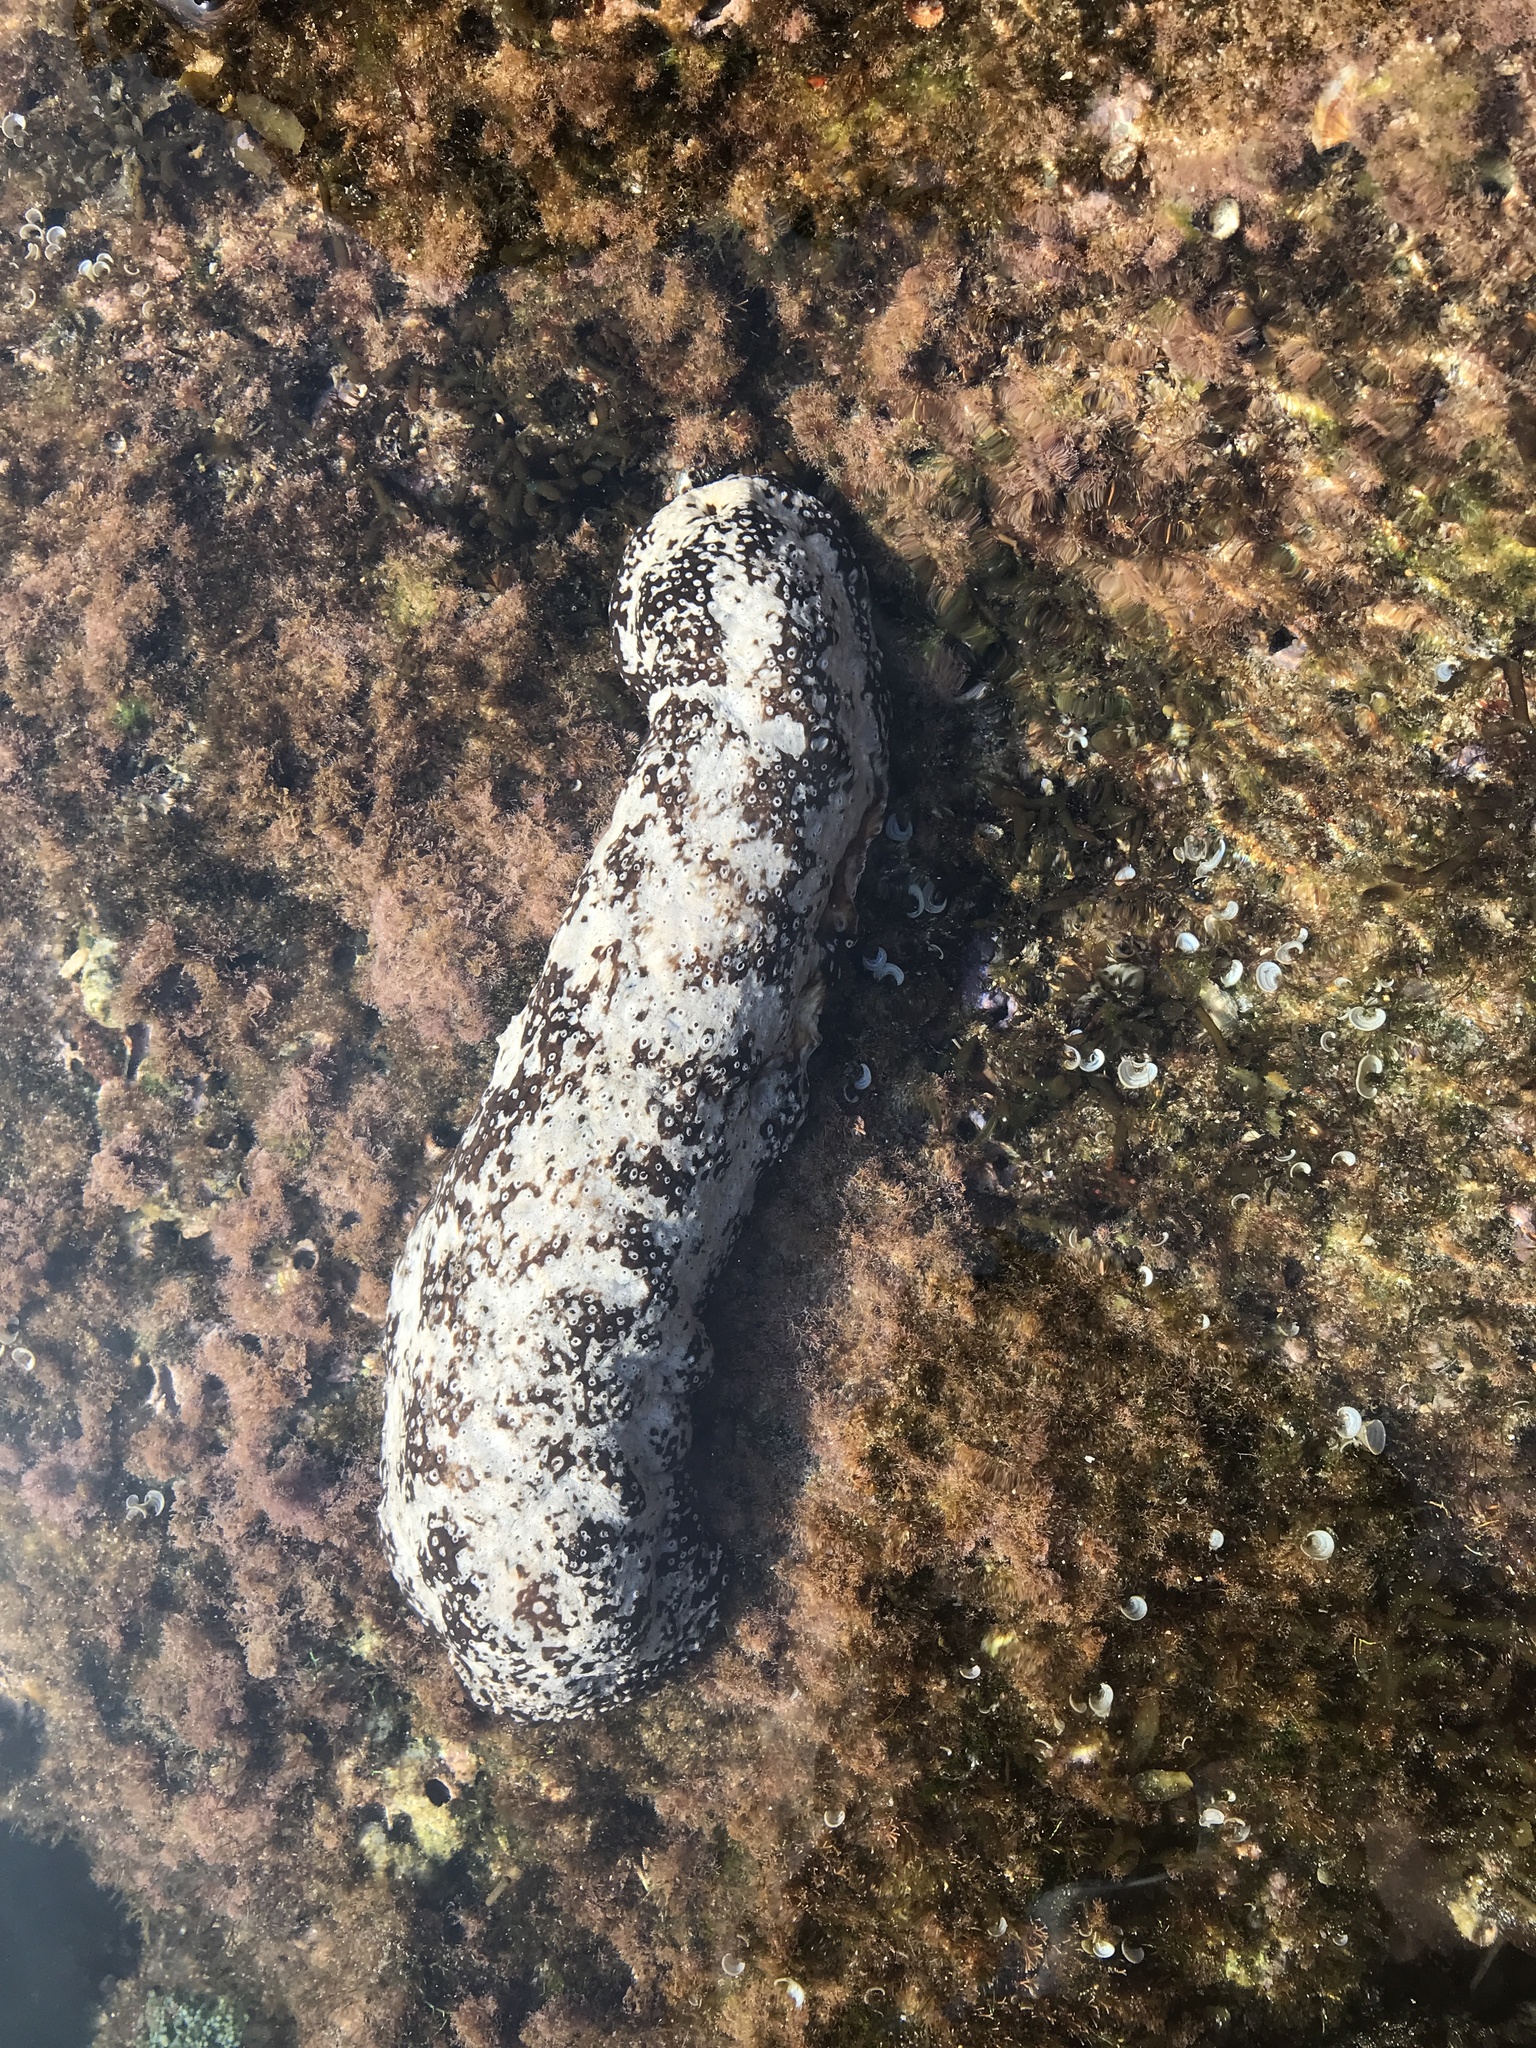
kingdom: Animalia
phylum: Echinodermata
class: Holothuroidea
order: Holothuriida
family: Holothuriidae
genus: Actinopyga
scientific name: Actinopyga varians
